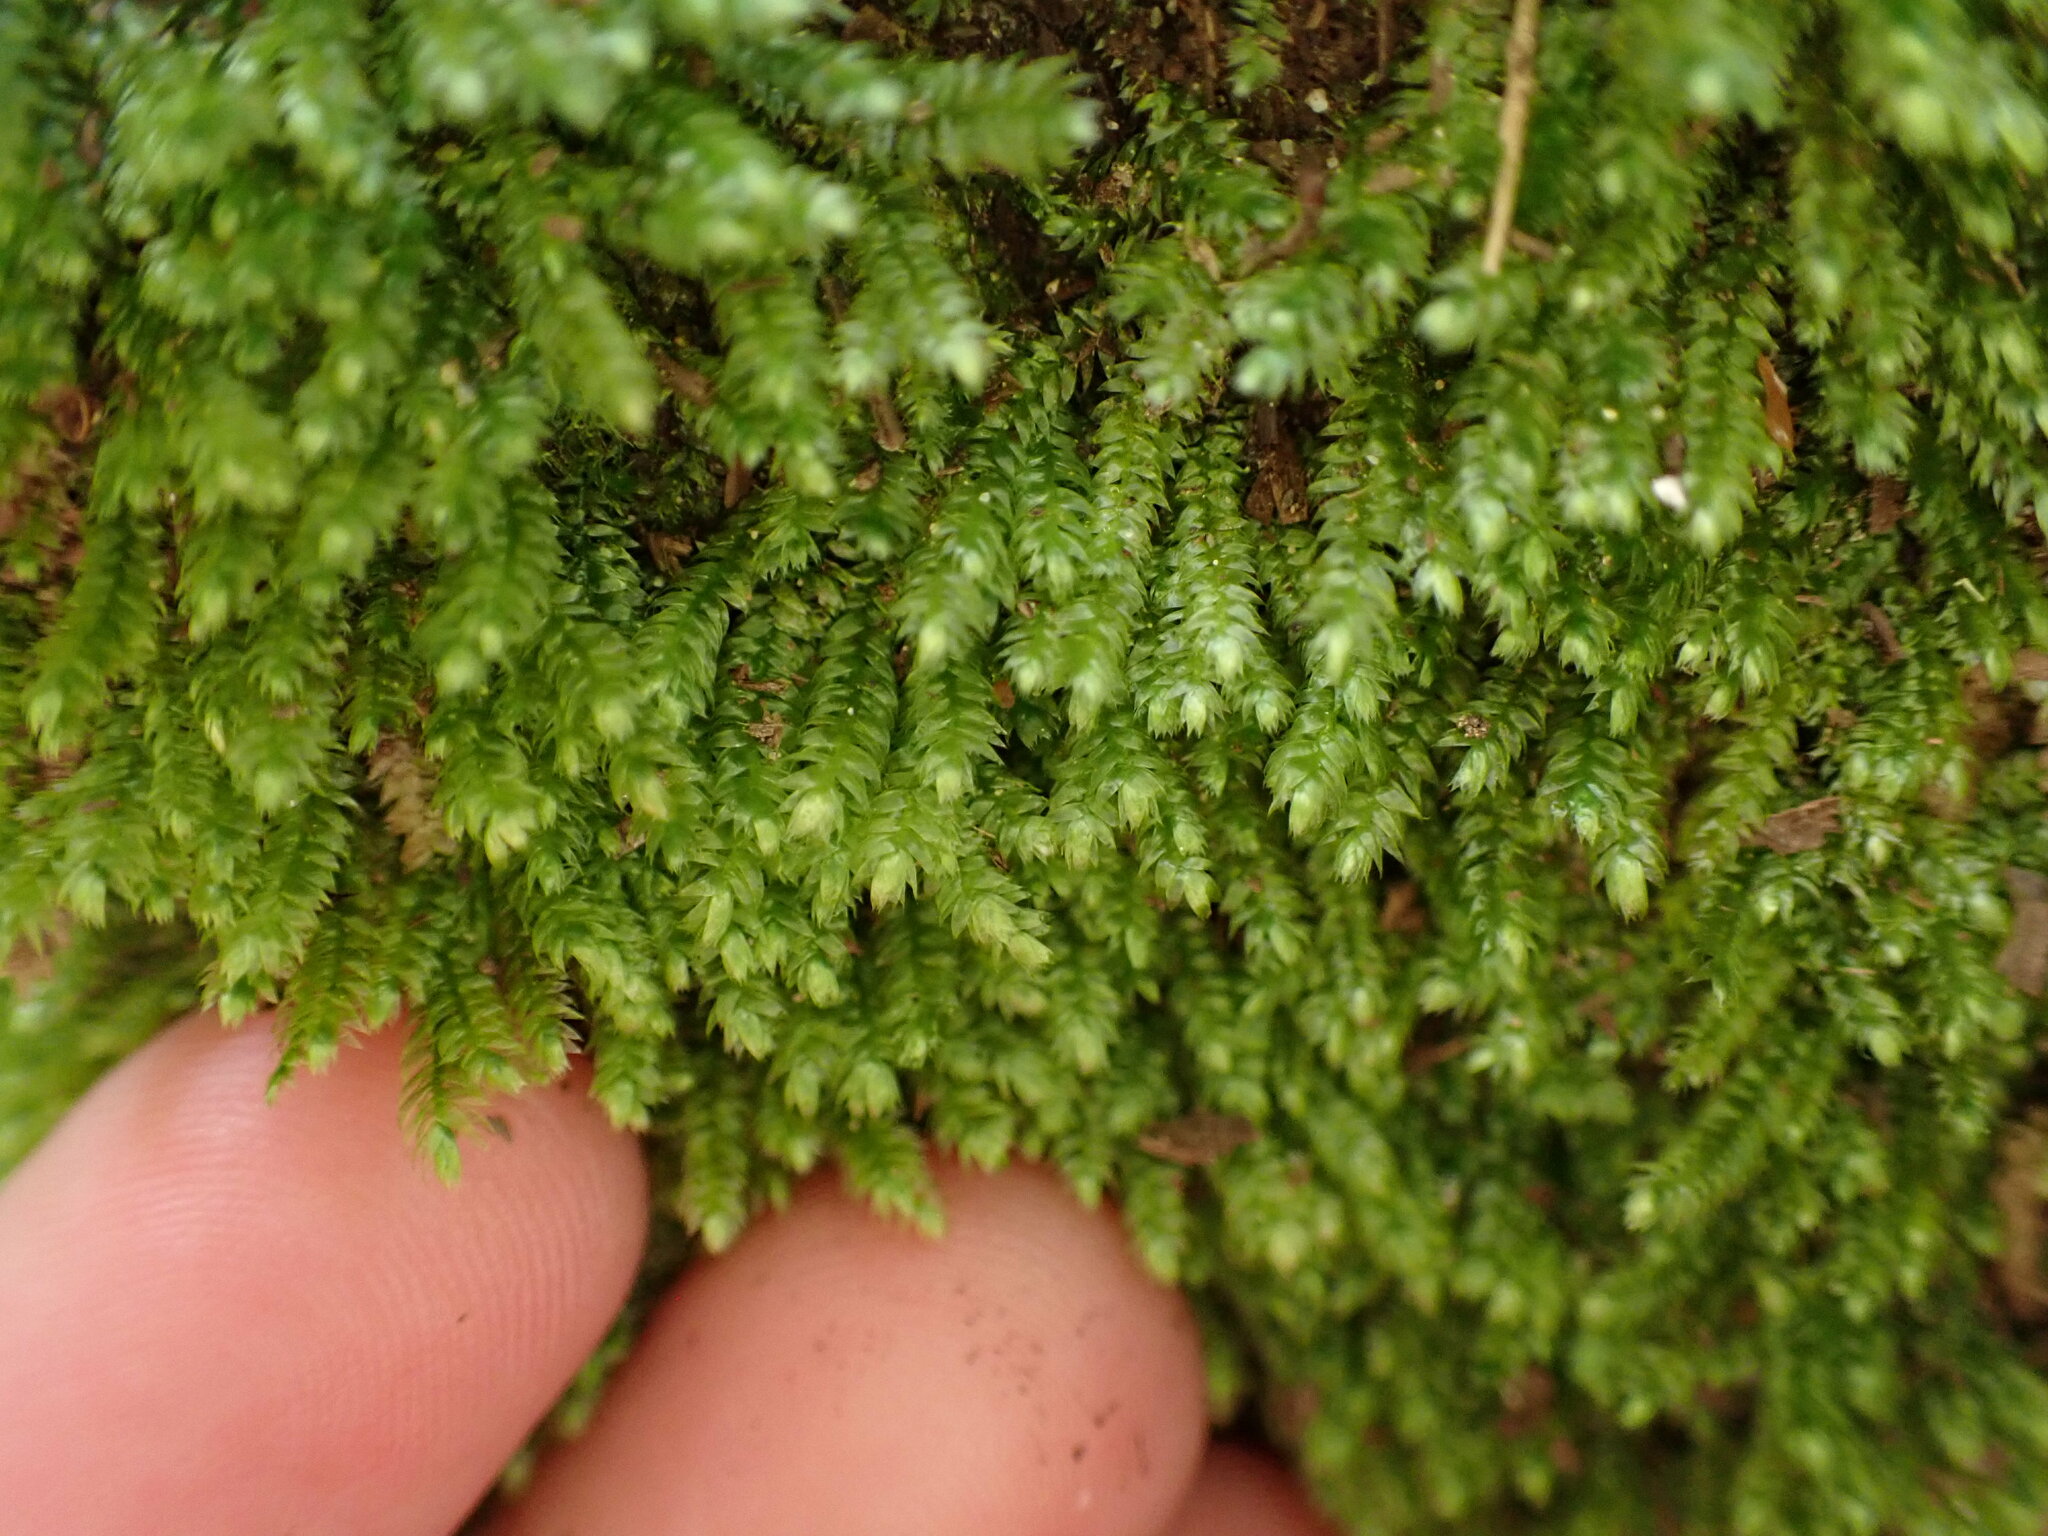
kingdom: Plantae
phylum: Bryophyta
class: Bryopsida
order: Hypnales
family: Plagiotheciaceae
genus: Pseudotaxiphyllum
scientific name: Pseudotaxiphyllum elegans
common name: Elegant silk moss
